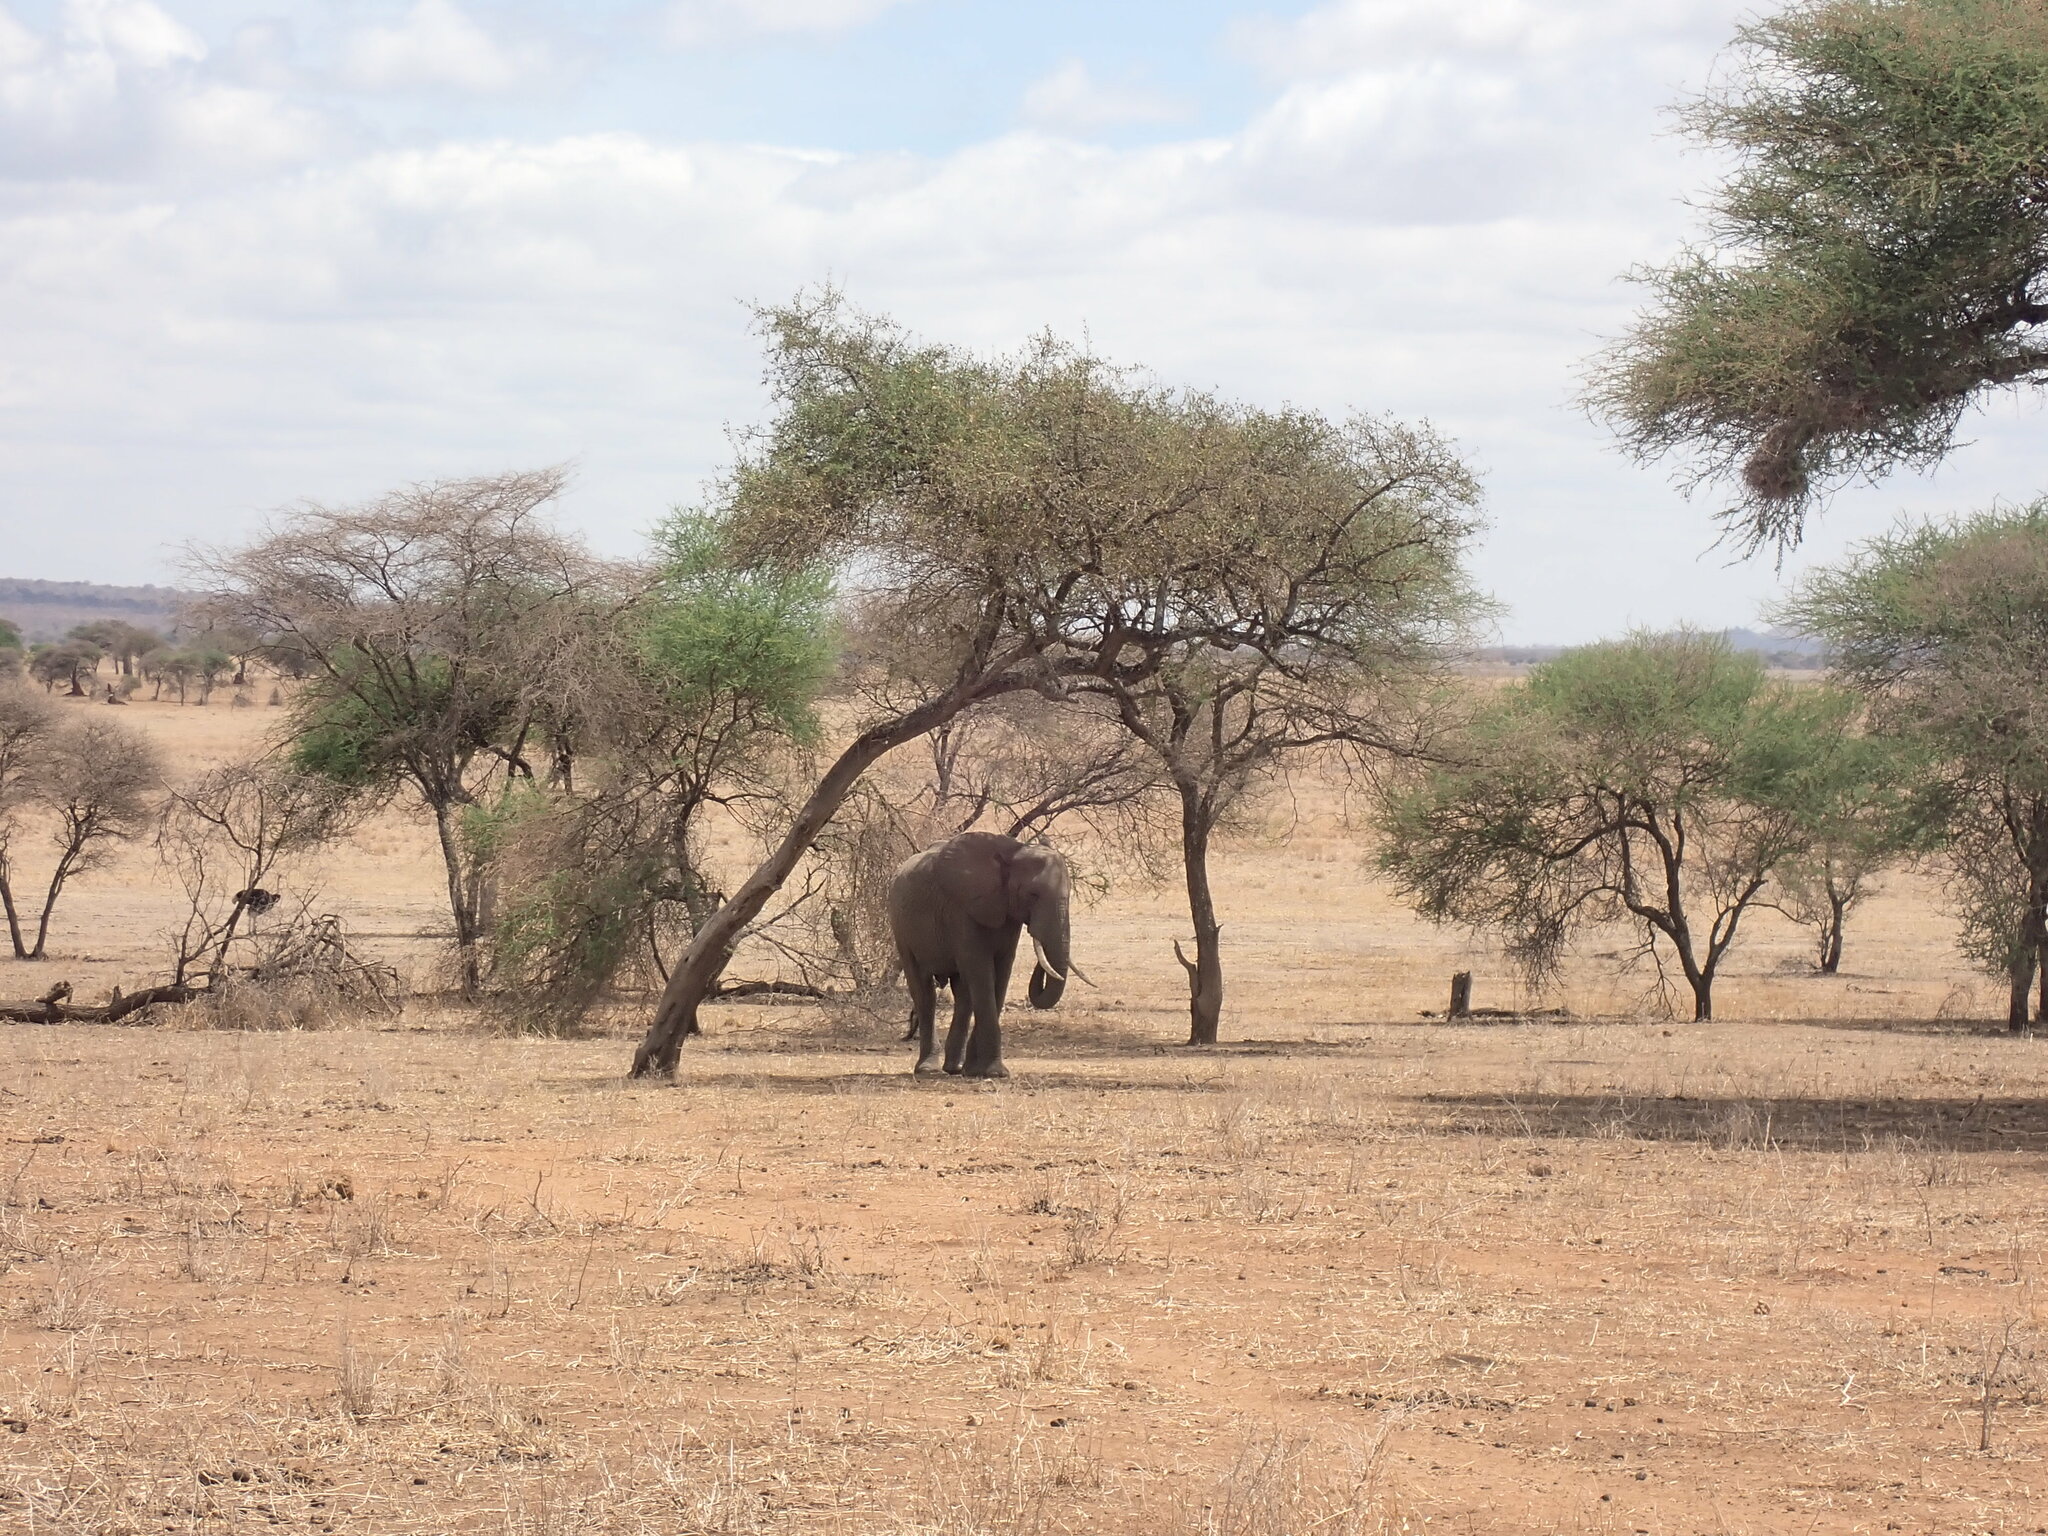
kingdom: Animalia
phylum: Chordata
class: Mammalia
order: Proboscidea
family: Elephantidae
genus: Loxodonta
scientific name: Loxodonta africana
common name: African elephant
